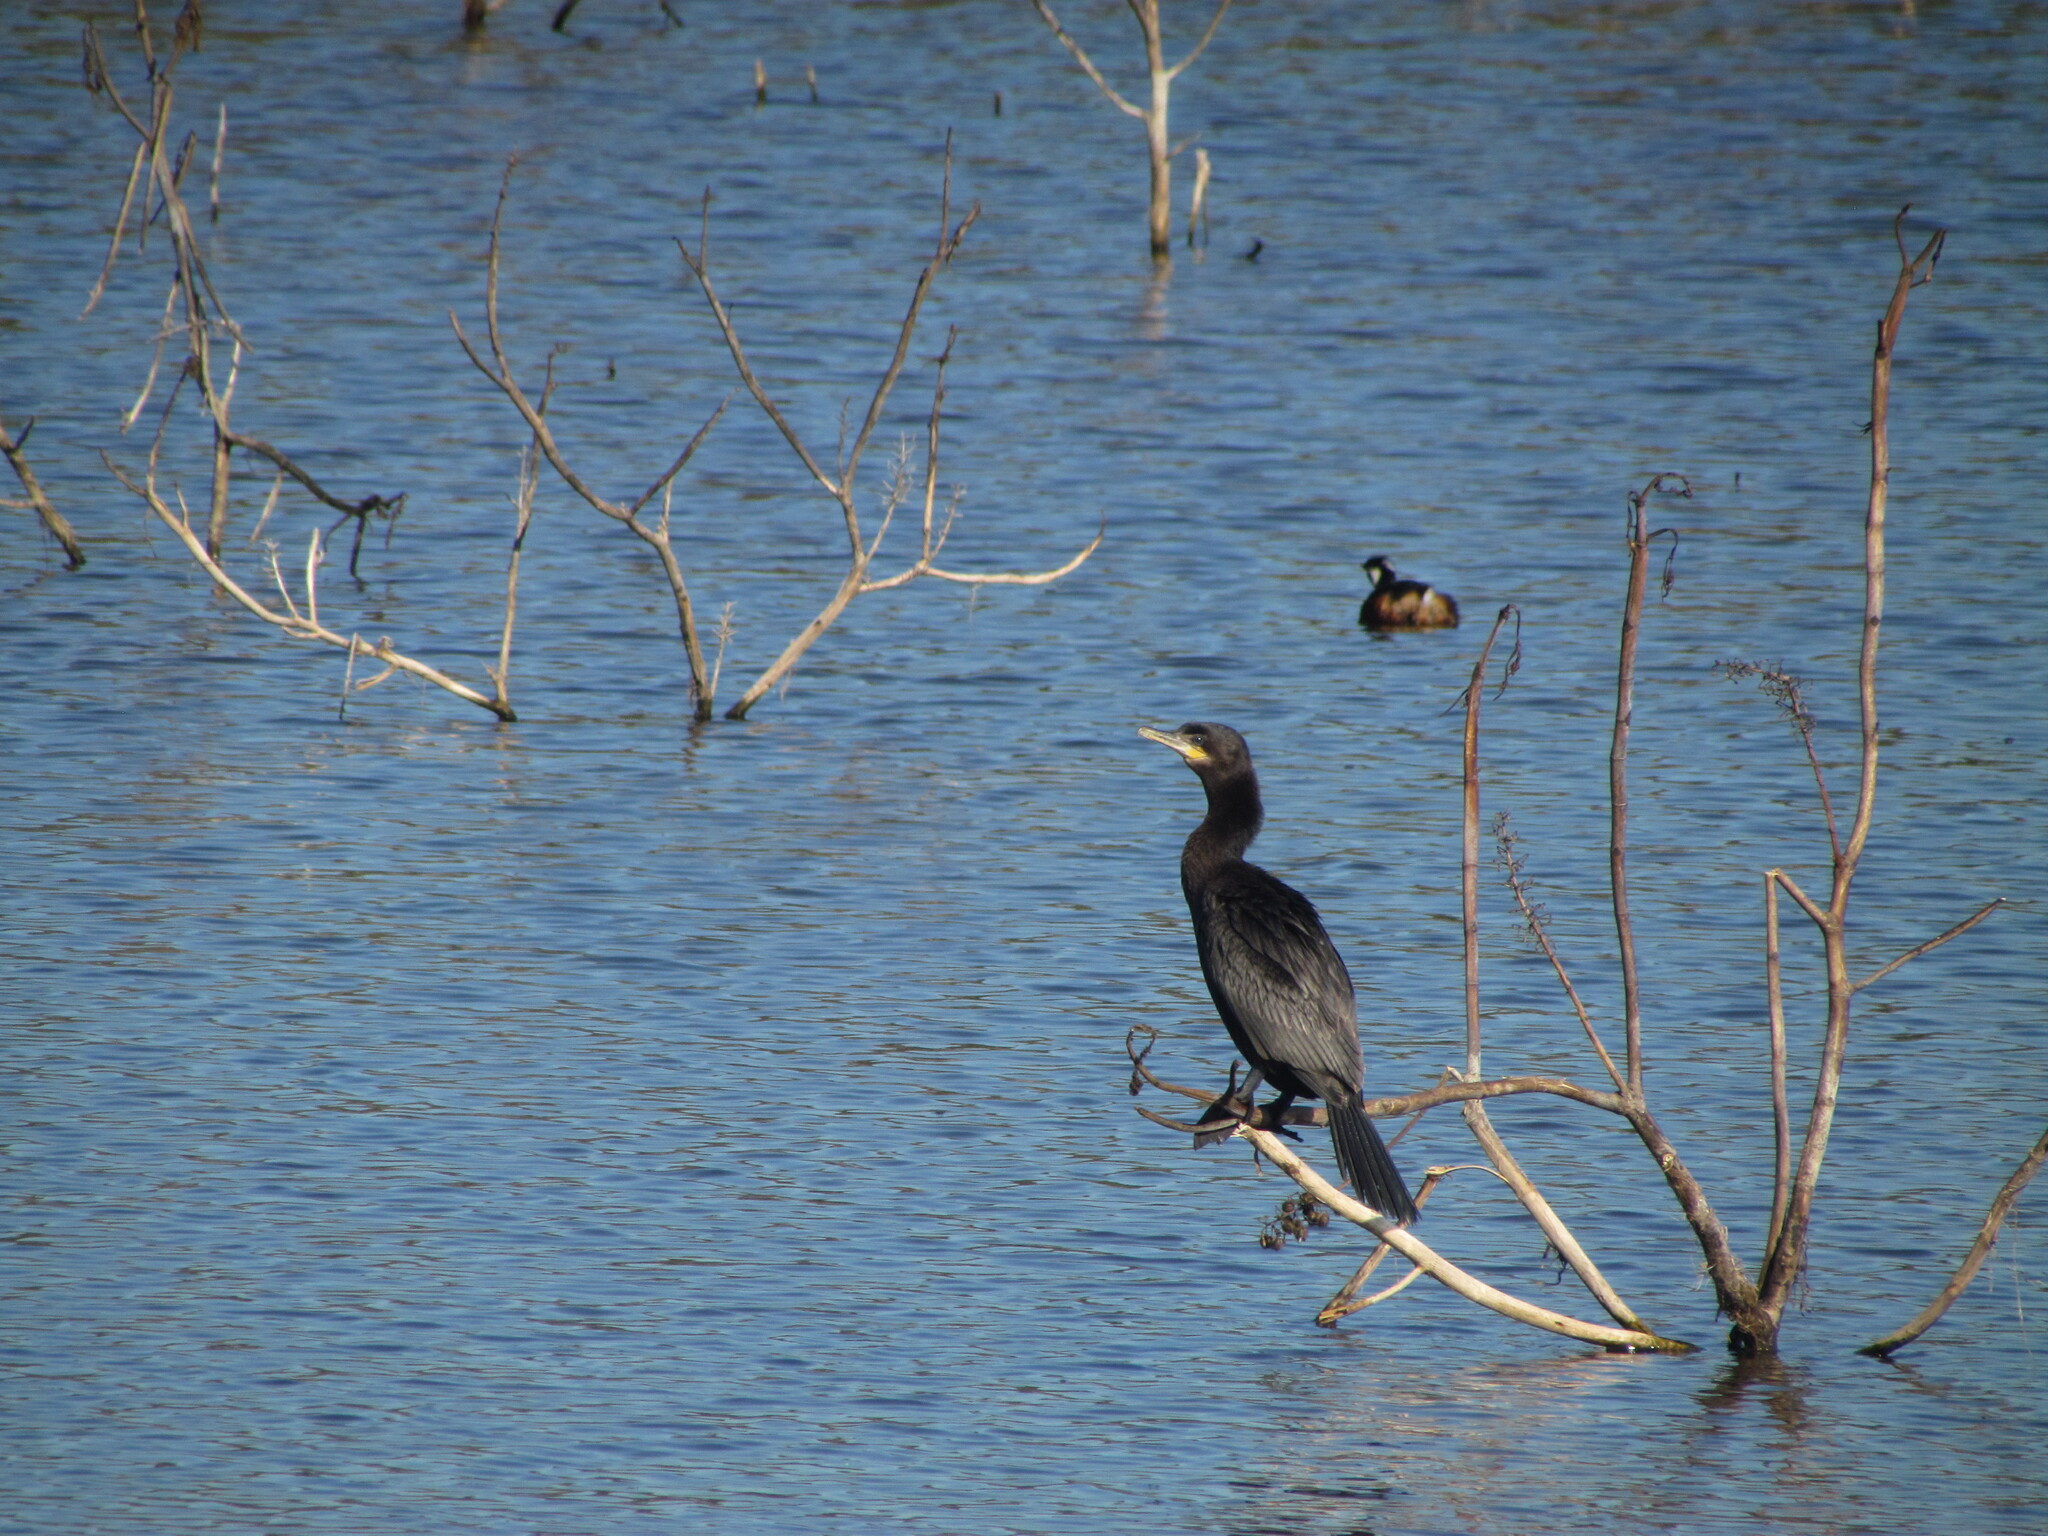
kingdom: Animalia
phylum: Chordata
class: Aves
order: Suliformes
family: Phalacrocoracidae
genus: Phalacrocorax
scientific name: Phalacrocorax brasilianus
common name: Neotropic cormorant
